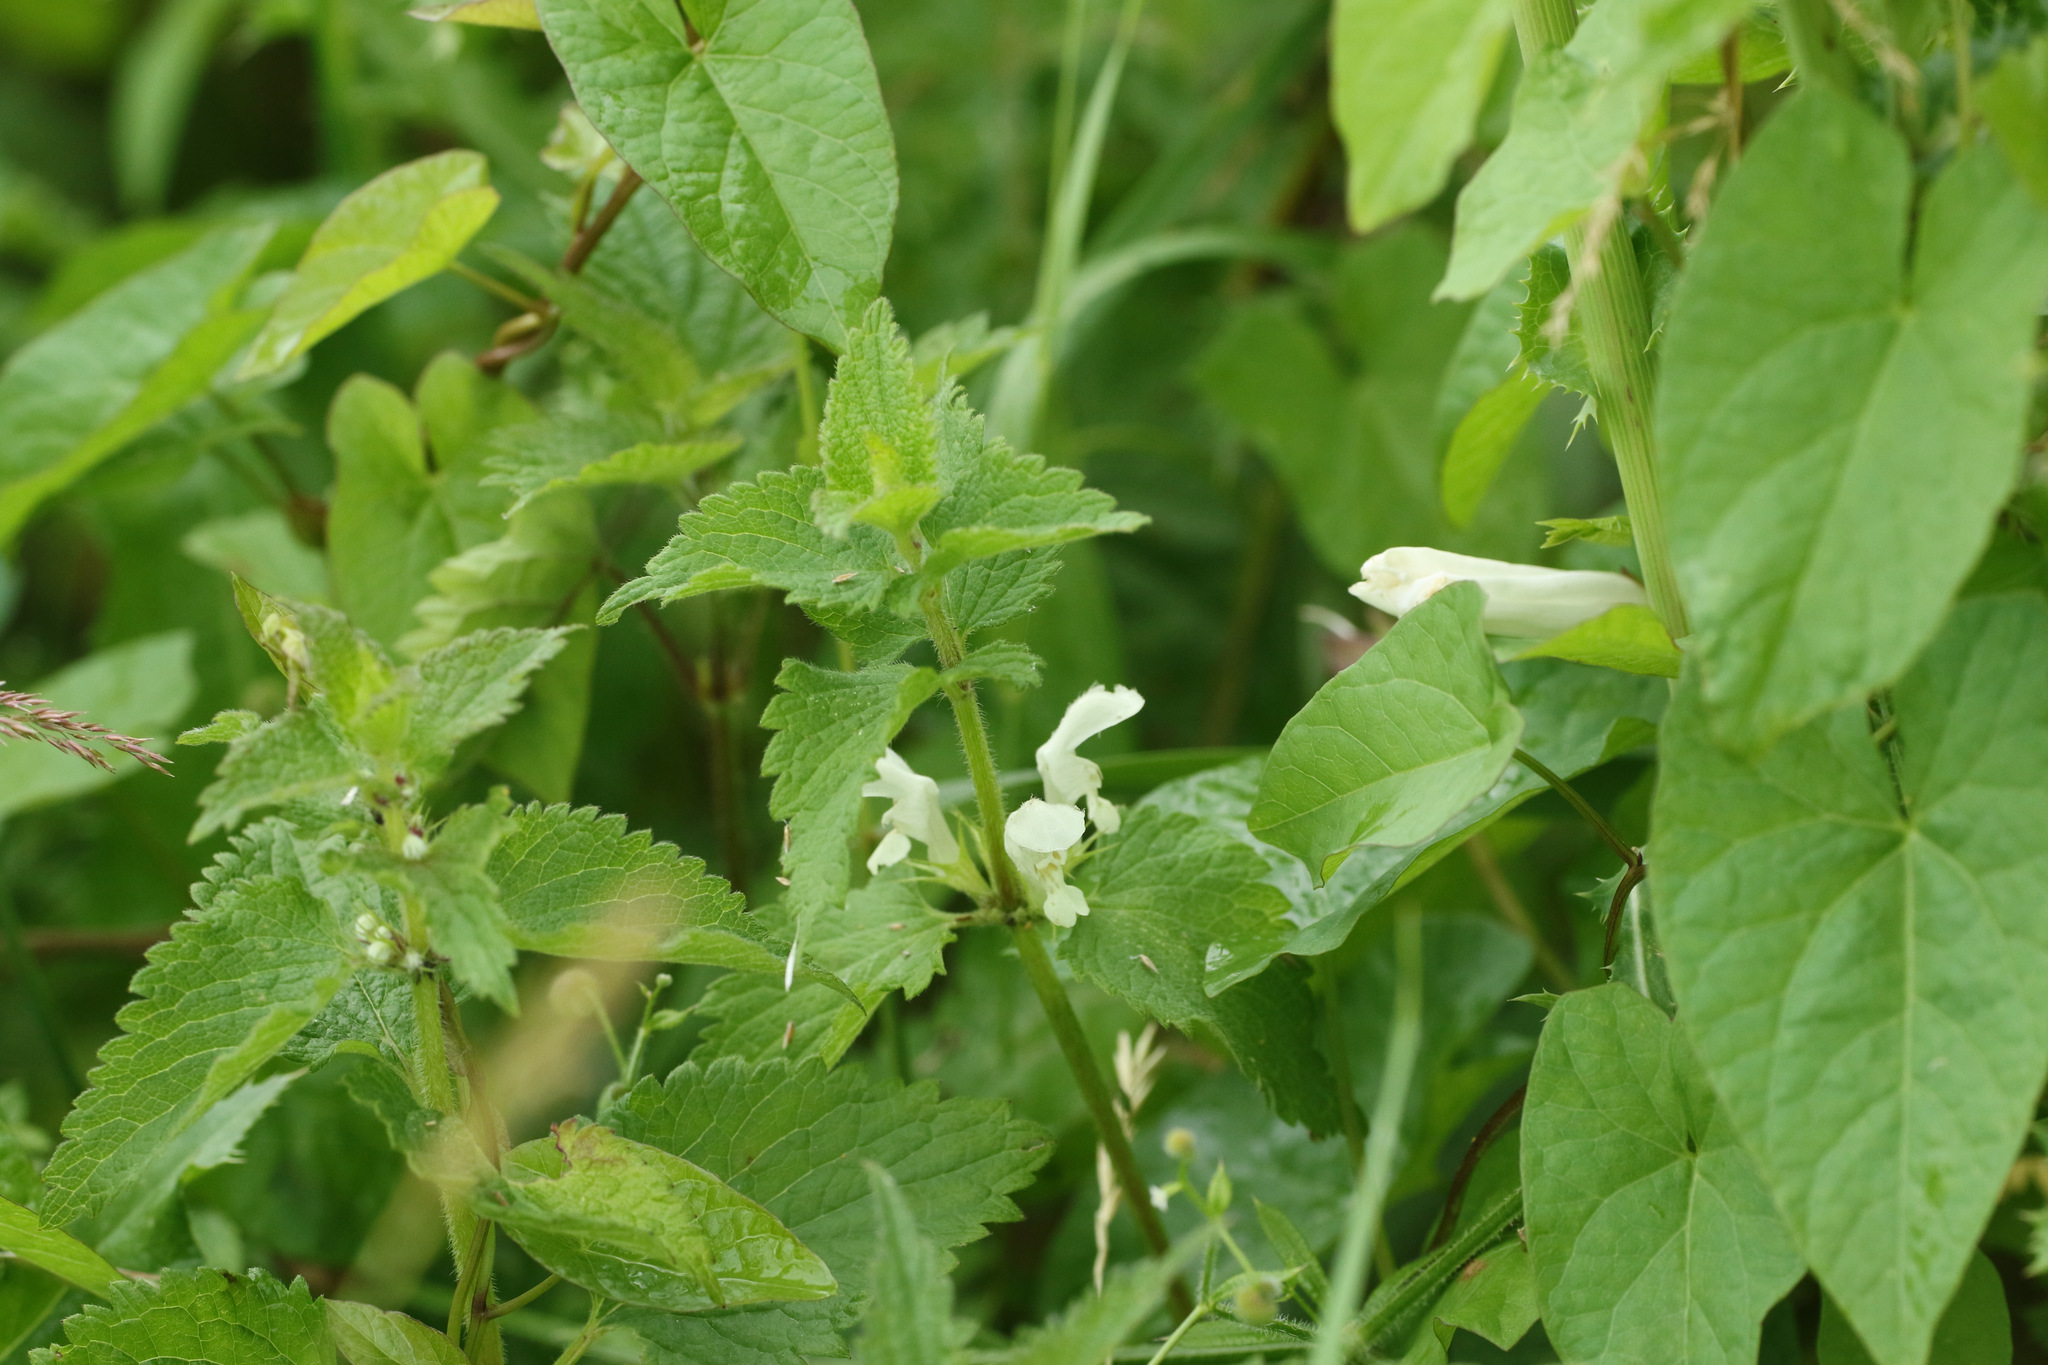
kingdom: Plantae
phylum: Tracheophyta
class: Magnoliopsida
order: Lamiales
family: Lamiaceae
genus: Lamium
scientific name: Lamium album
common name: White dead-nettle
